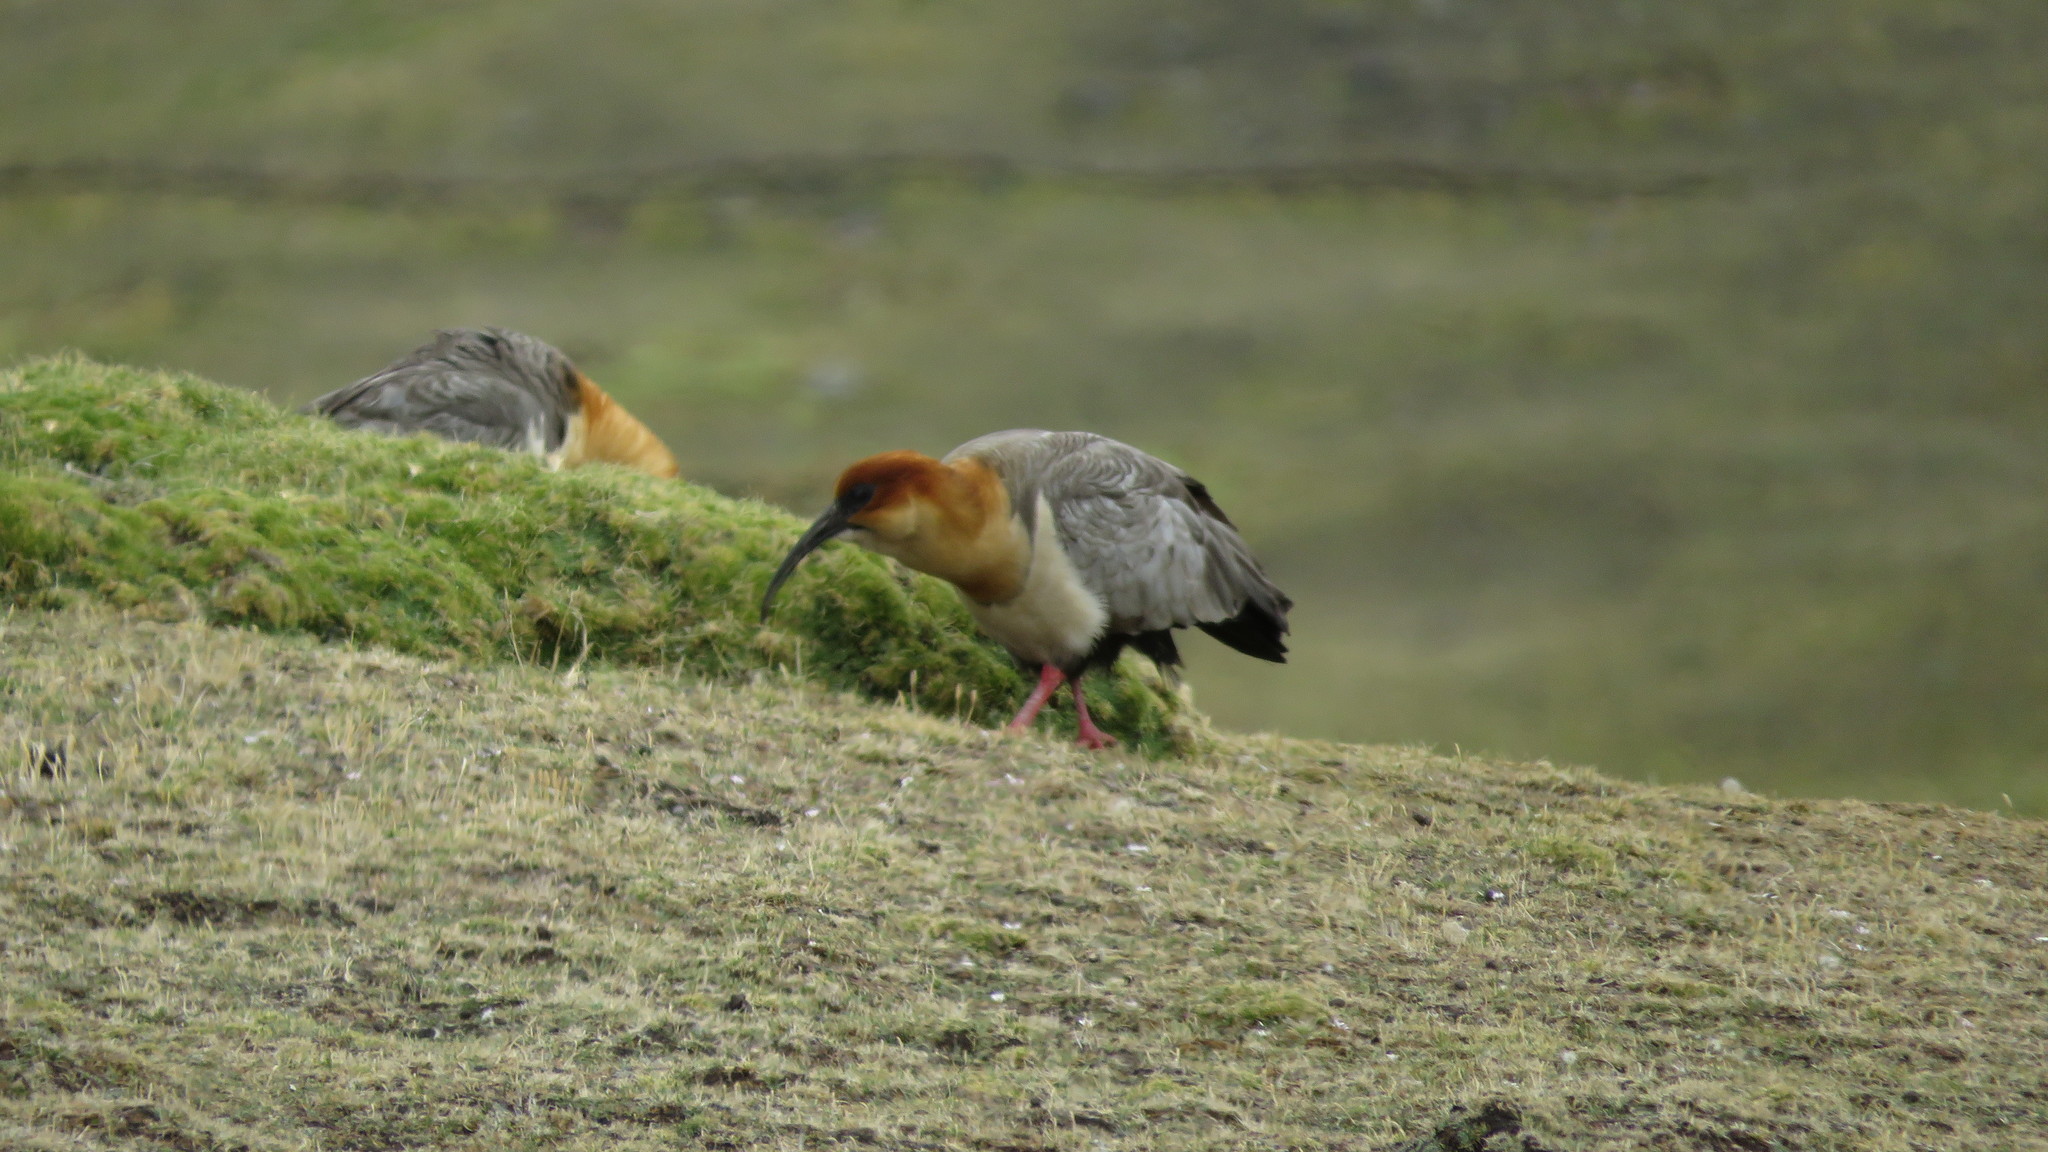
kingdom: Animalia
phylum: Chordata
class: Aves
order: Pelecaniformes
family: Threskiornithidae
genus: Theristicus
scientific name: Theristicus melanopis
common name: Black-faced ibis
